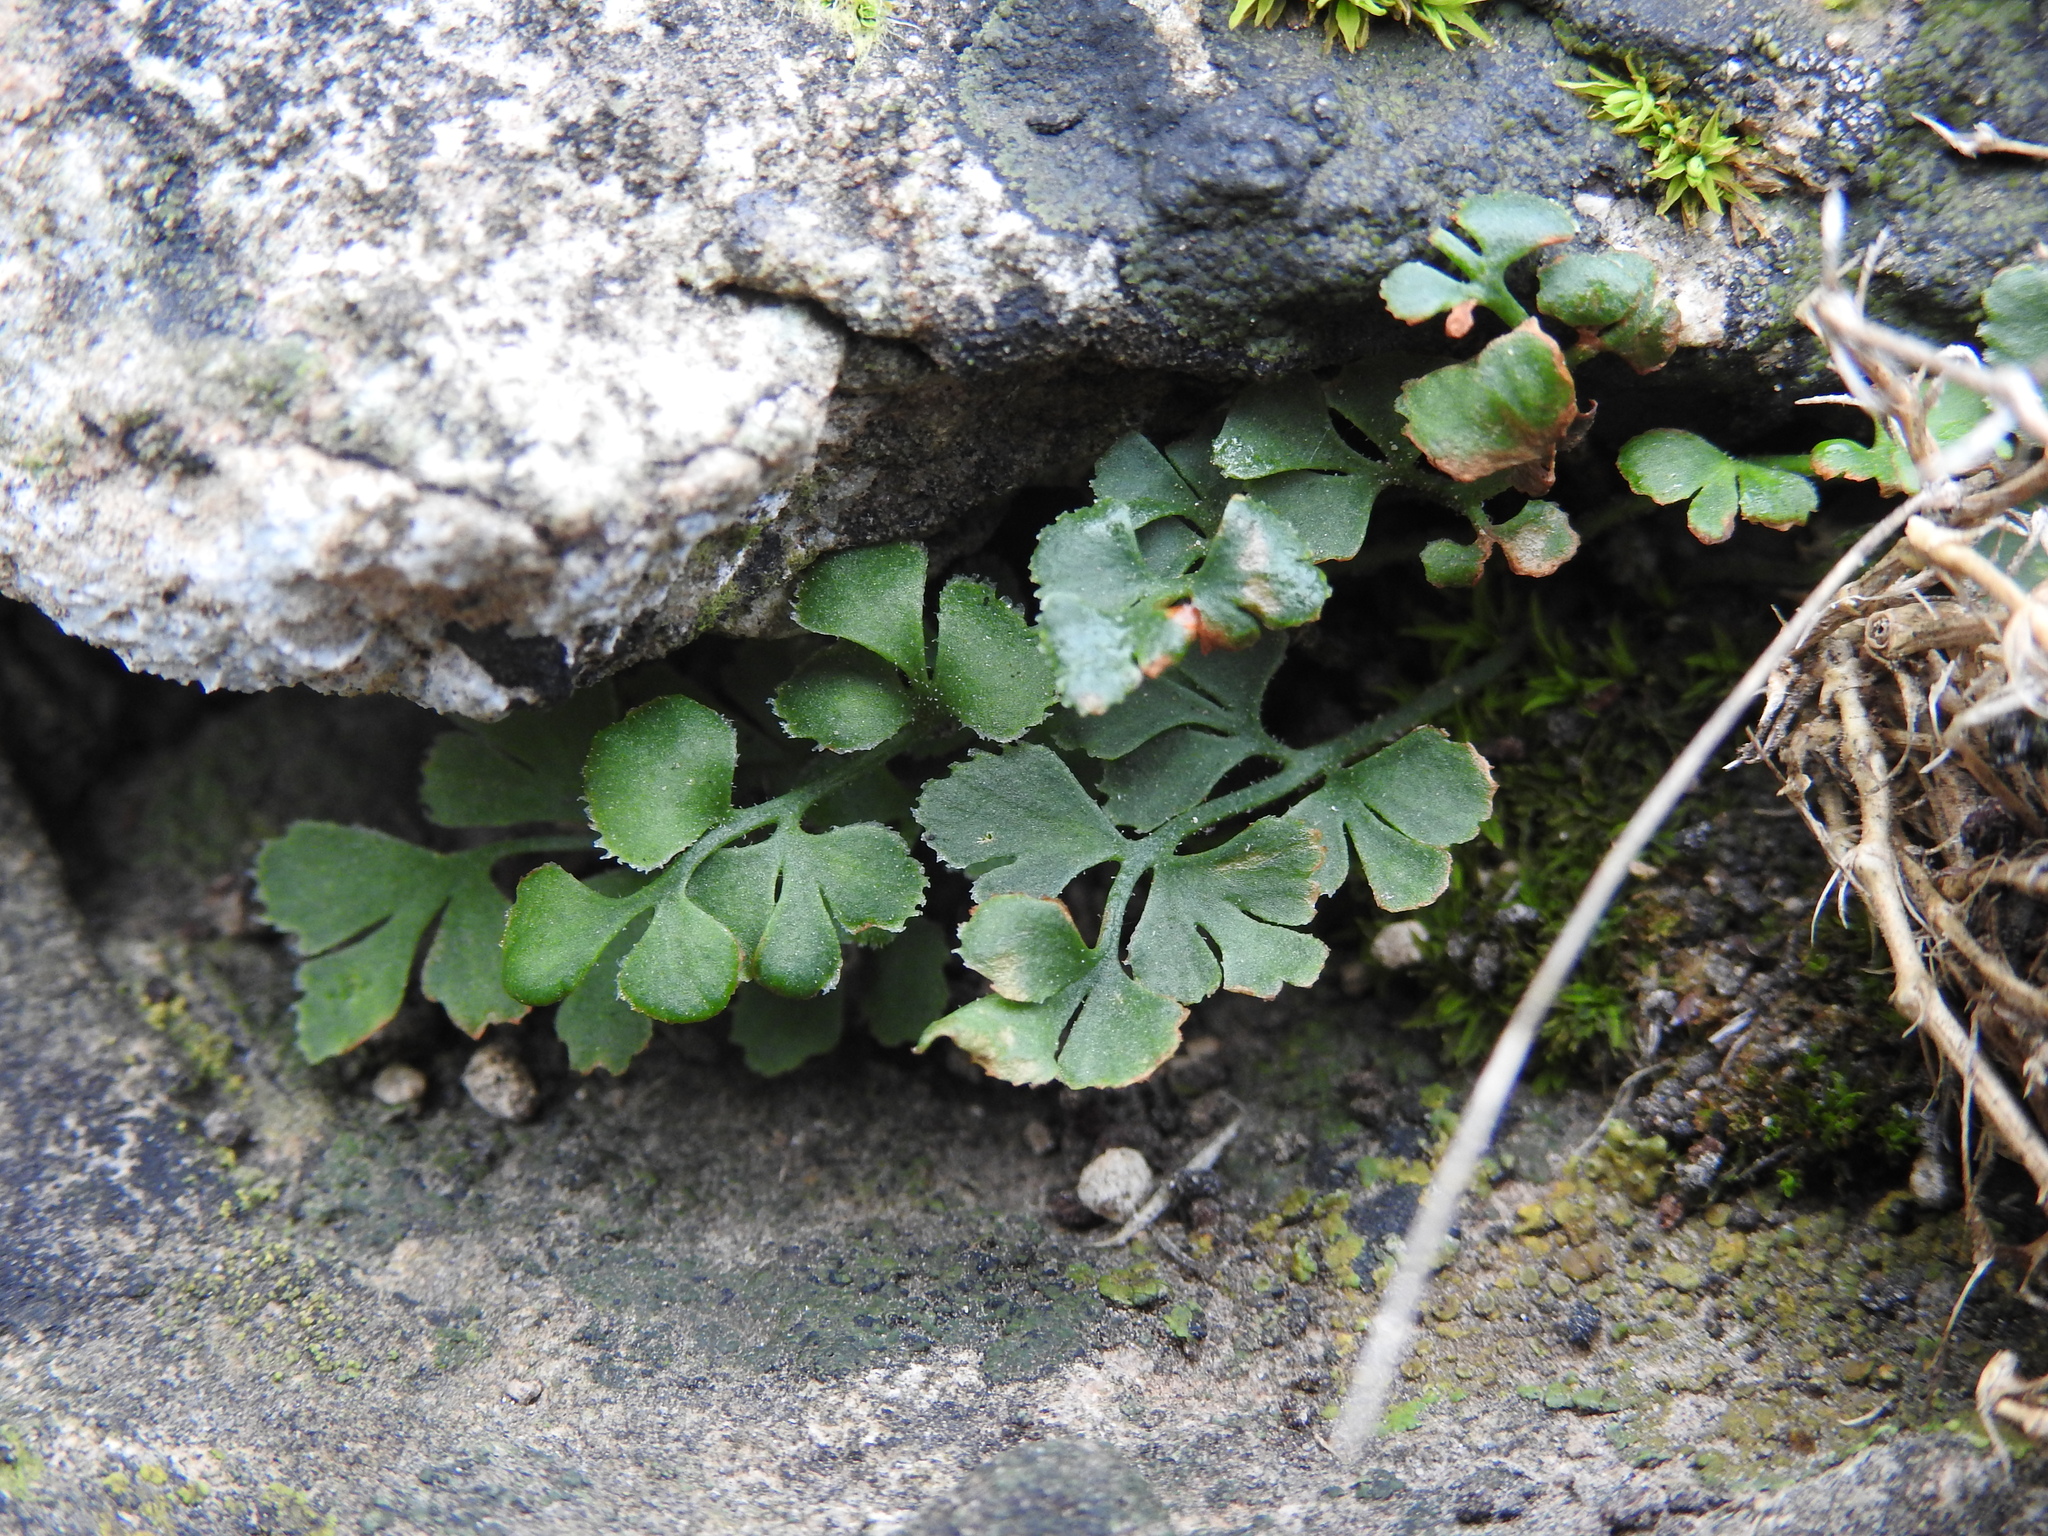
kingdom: Plantae
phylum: Tracheophyta
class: Polypodiopsida
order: Polypodiales
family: Aspleniaceae
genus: Asplenium
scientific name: Asplenium ruta-muraria
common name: Wall-rue
